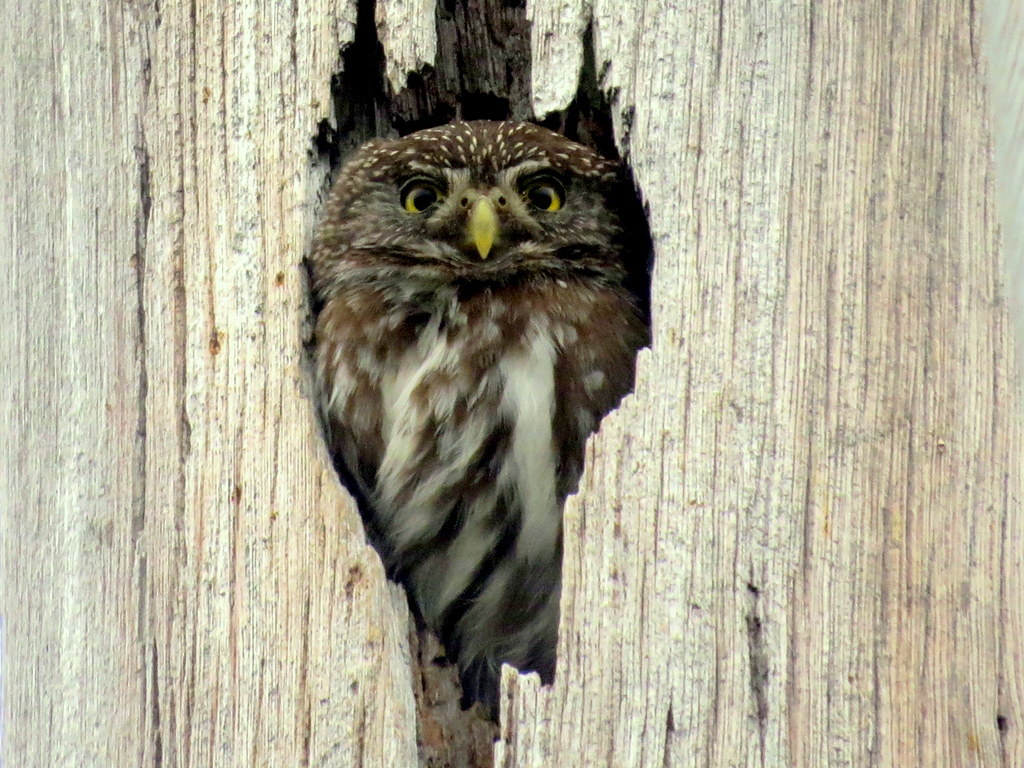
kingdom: Animalia
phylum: Chordata
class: Aves
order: Strigiformes
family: Strigidae
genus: Glaucidium
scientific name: Glaucidium brasilianum
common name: Ferruginous pygmy-owl
